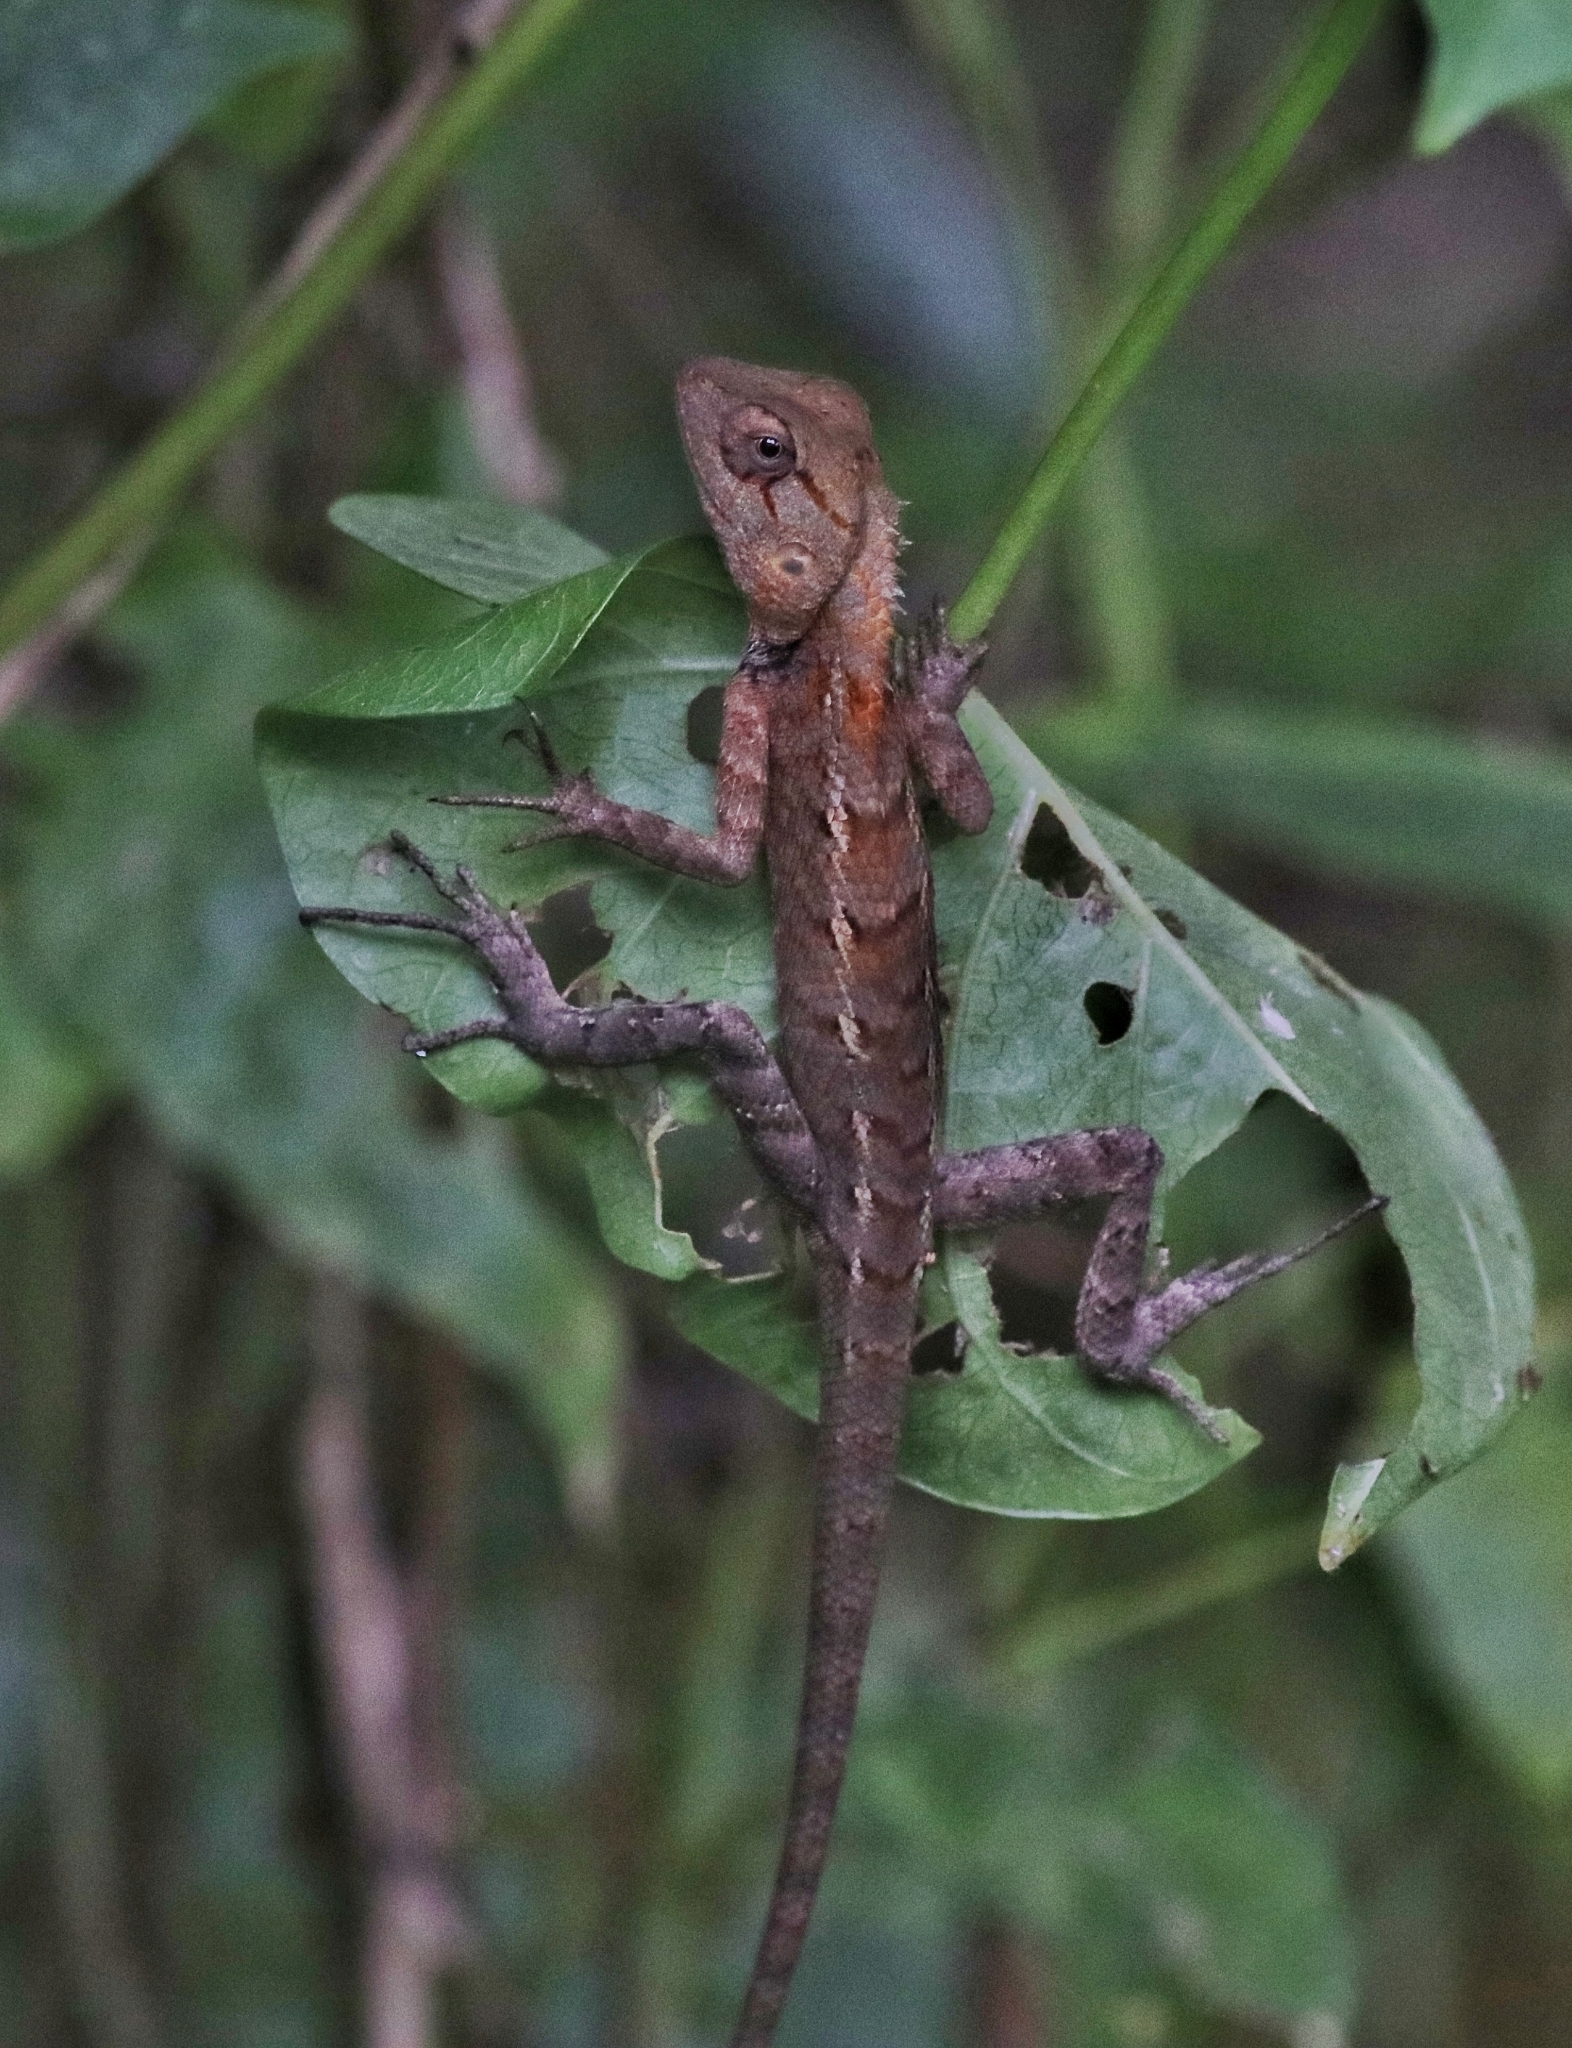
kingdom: Animalia
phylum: Chordata
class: Squamata
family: Agamidae
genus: Calotes
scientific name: Calotes versicolor
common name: Oriental garden lizard
